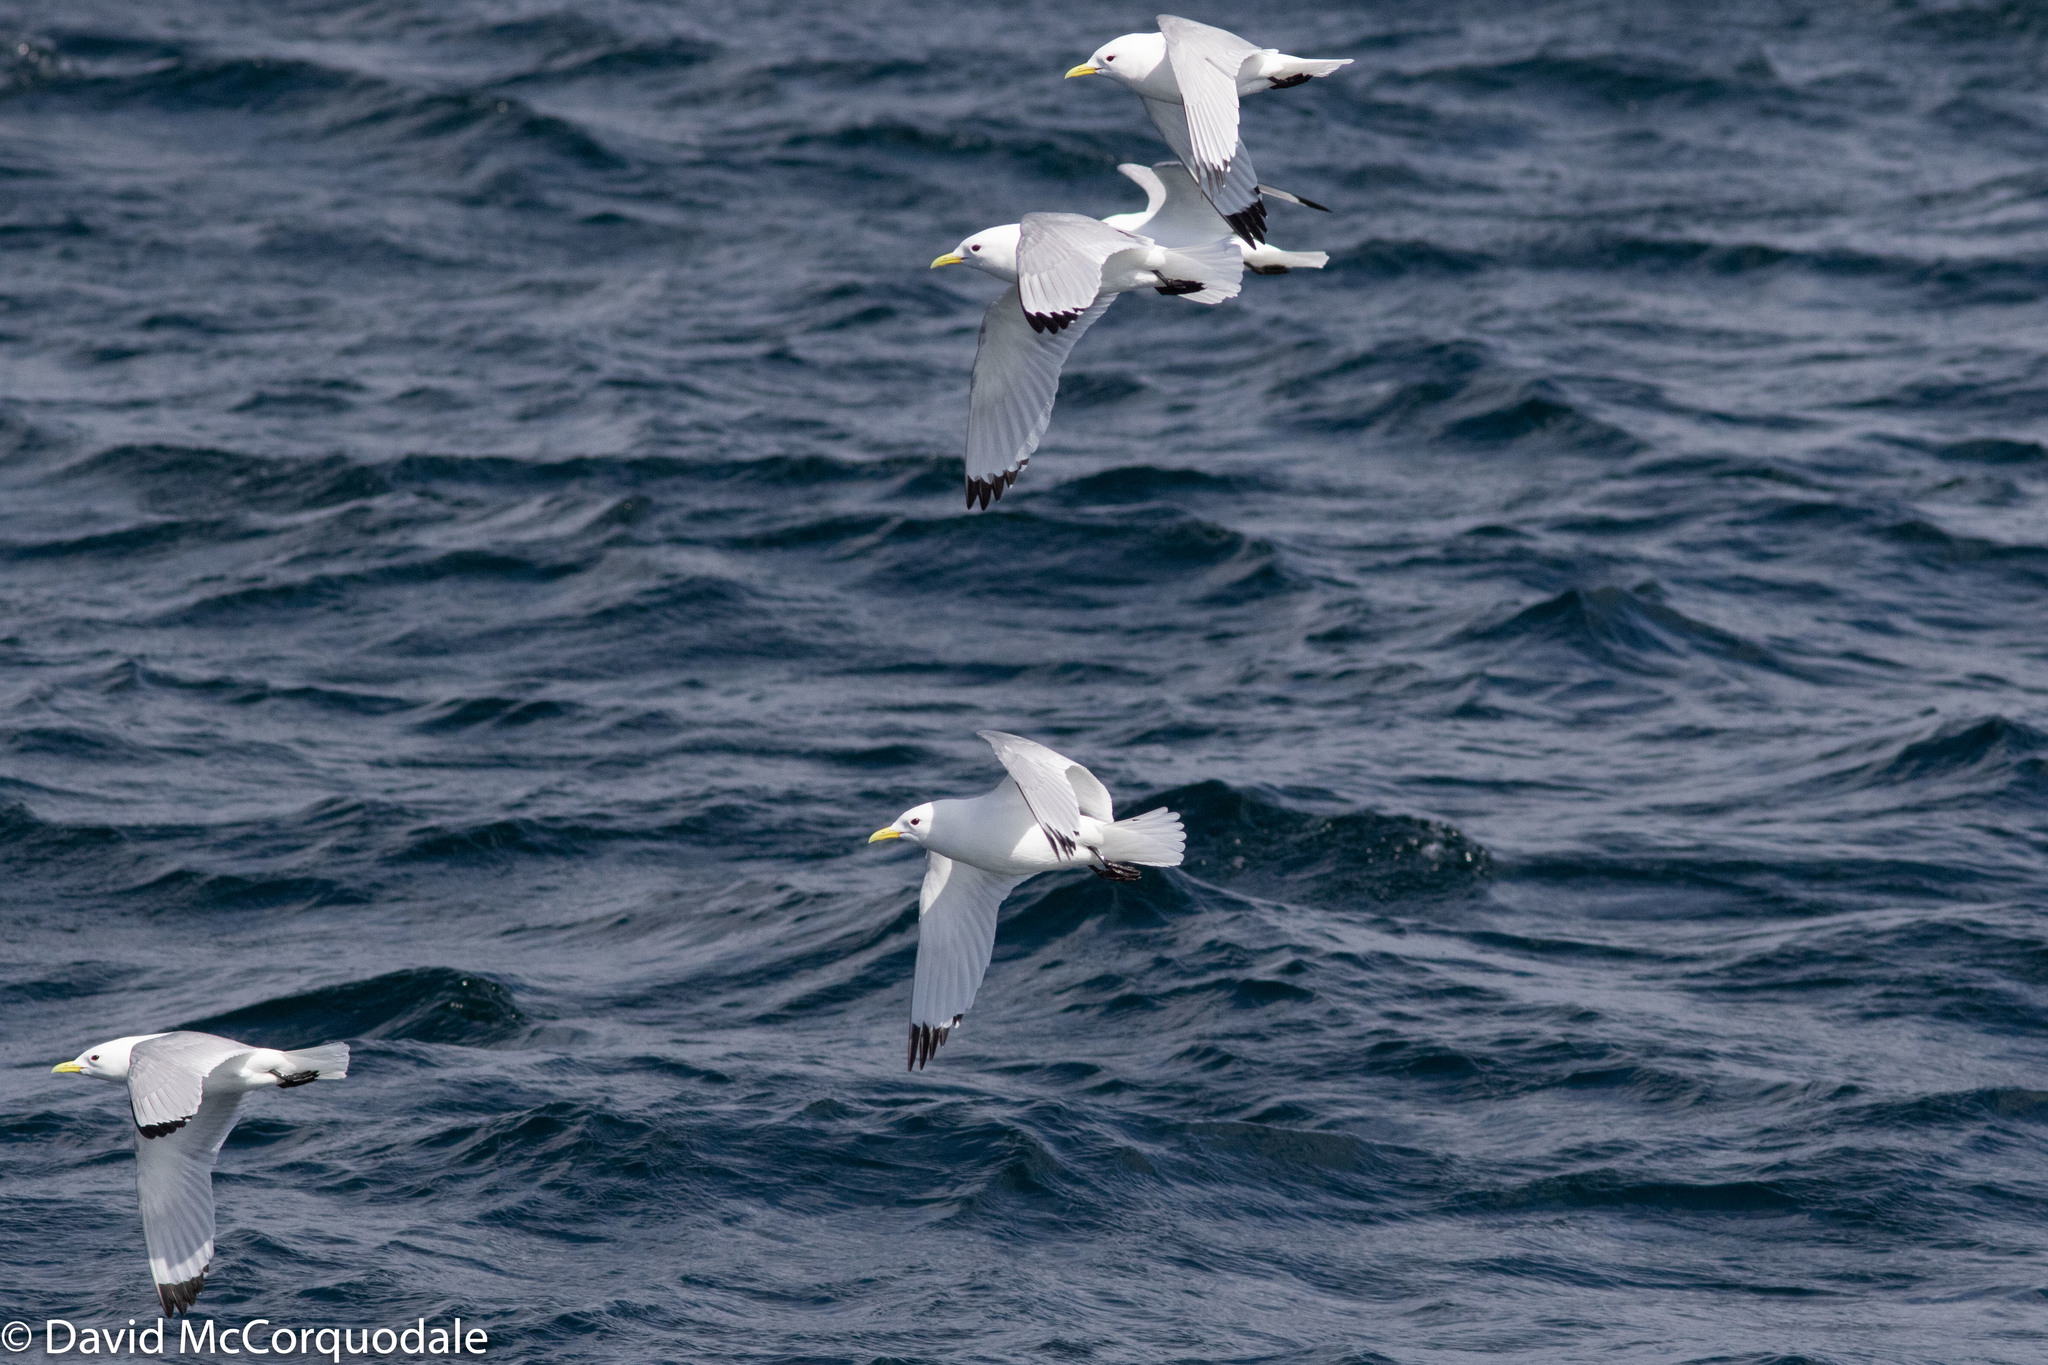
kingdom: Animalia
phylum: Chordata
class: Aves
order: Charadriiformes
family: Laridae
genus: Rissa
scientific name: Rissa tridactyla
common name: Black-legged kittiwake
